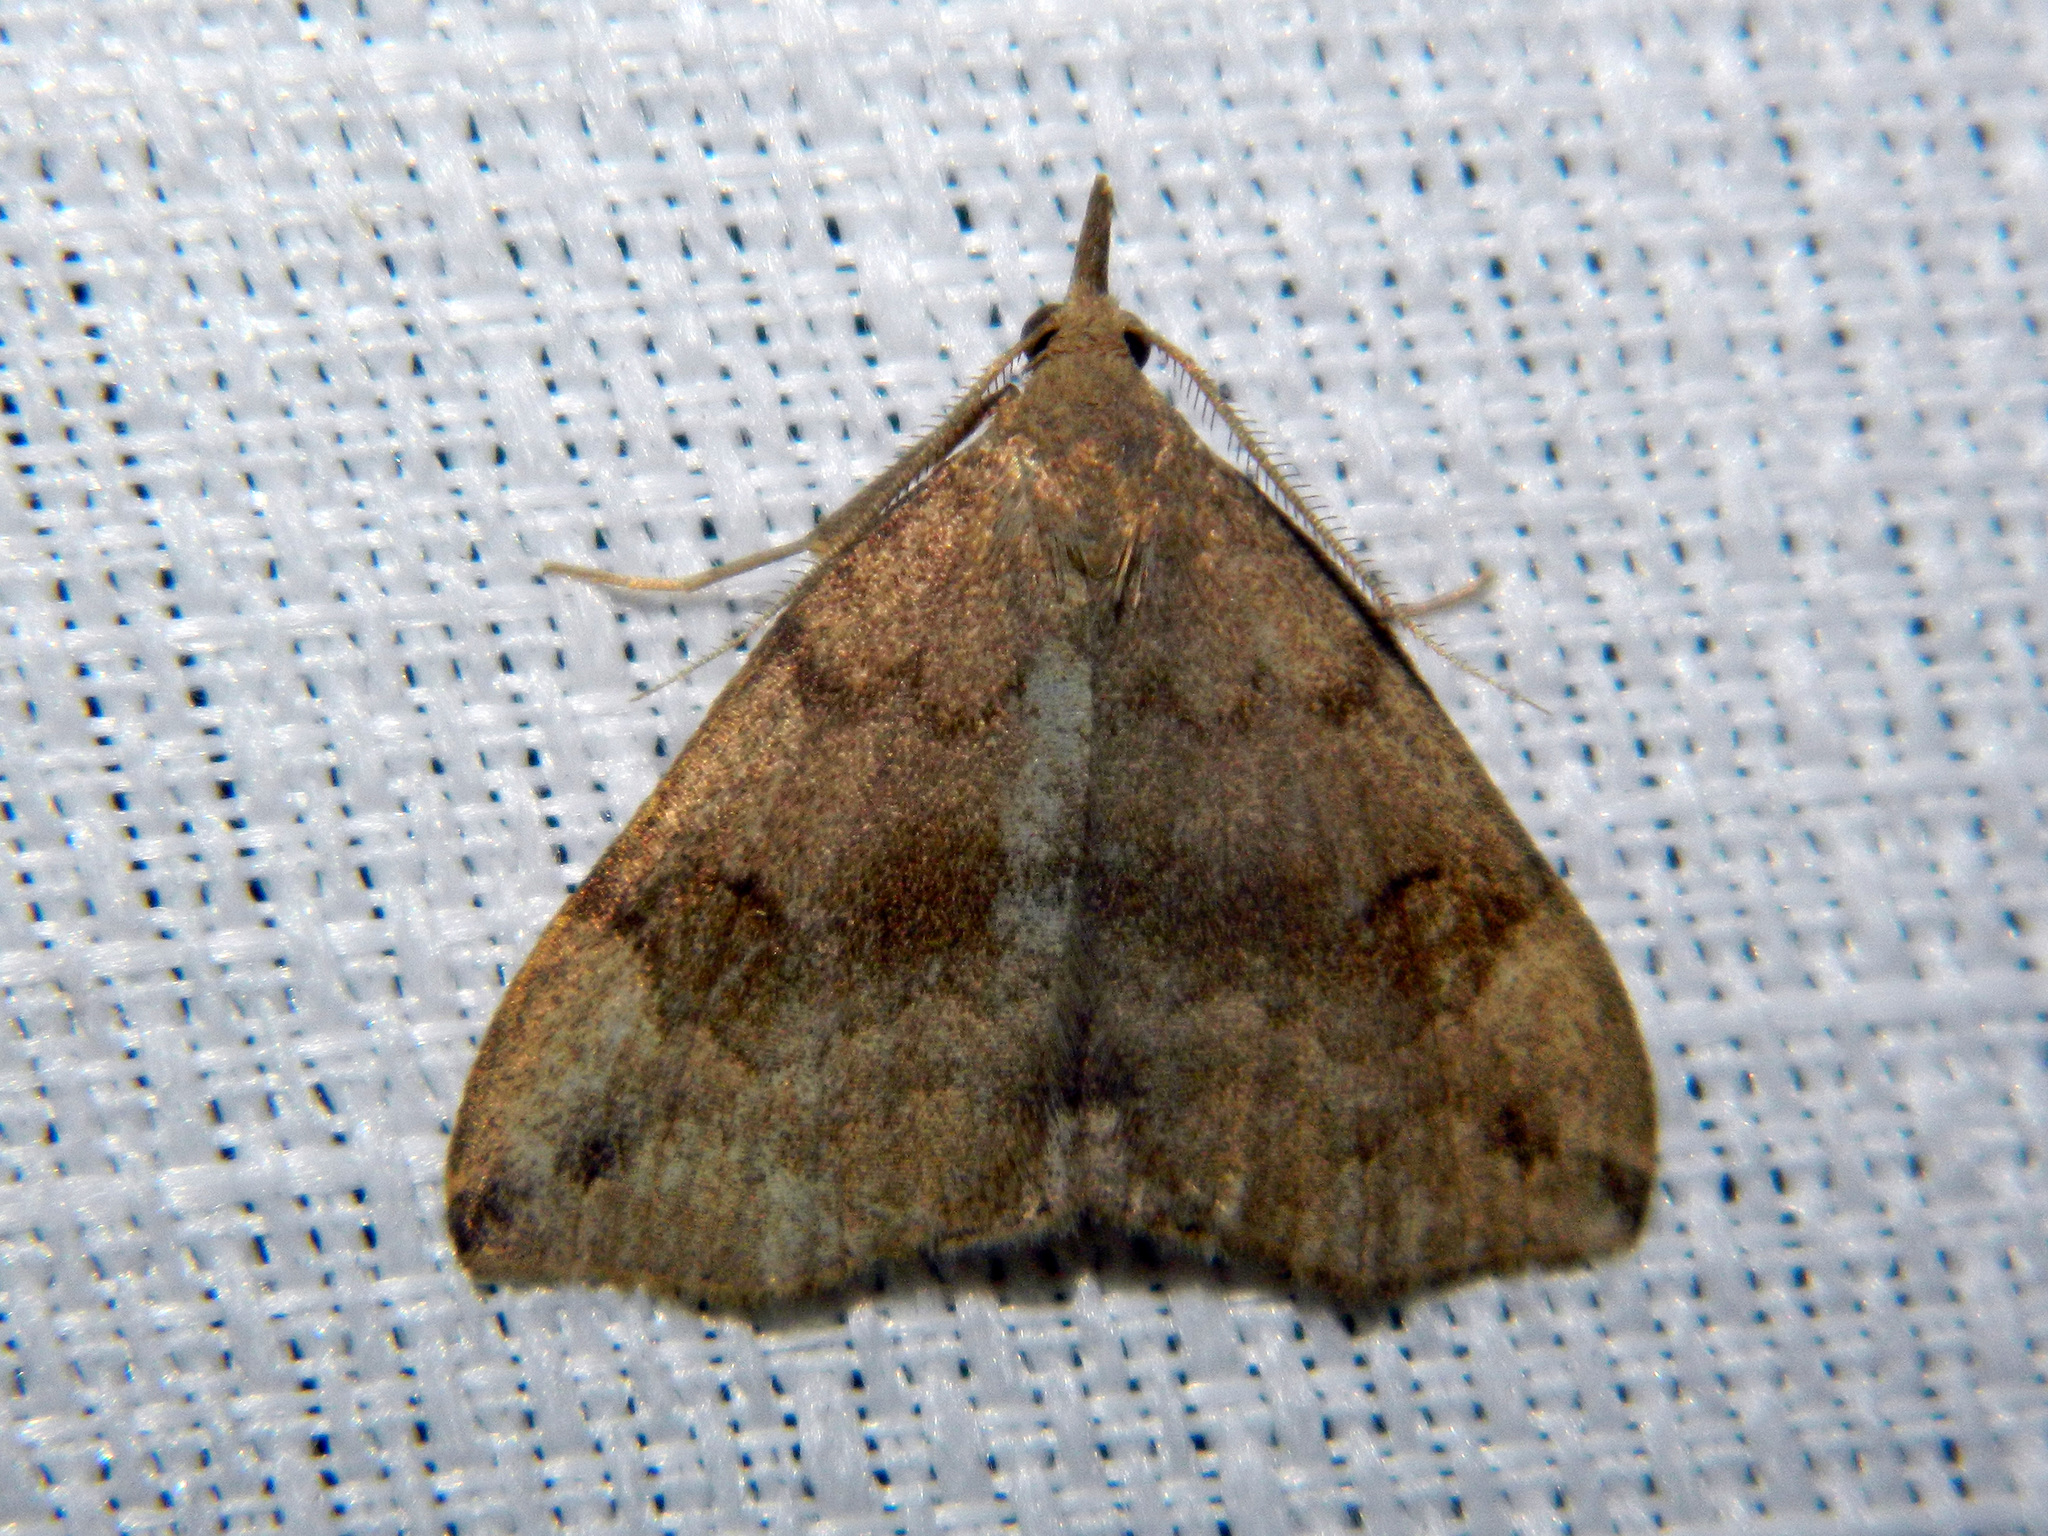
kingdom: Animalia
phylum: Arthropoda
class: Insecta
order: Lepidoptera
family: Erebidae
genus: Phalaenostola
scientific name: Phalaenostola eumelusalis
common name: Dark phalaenostola moth
